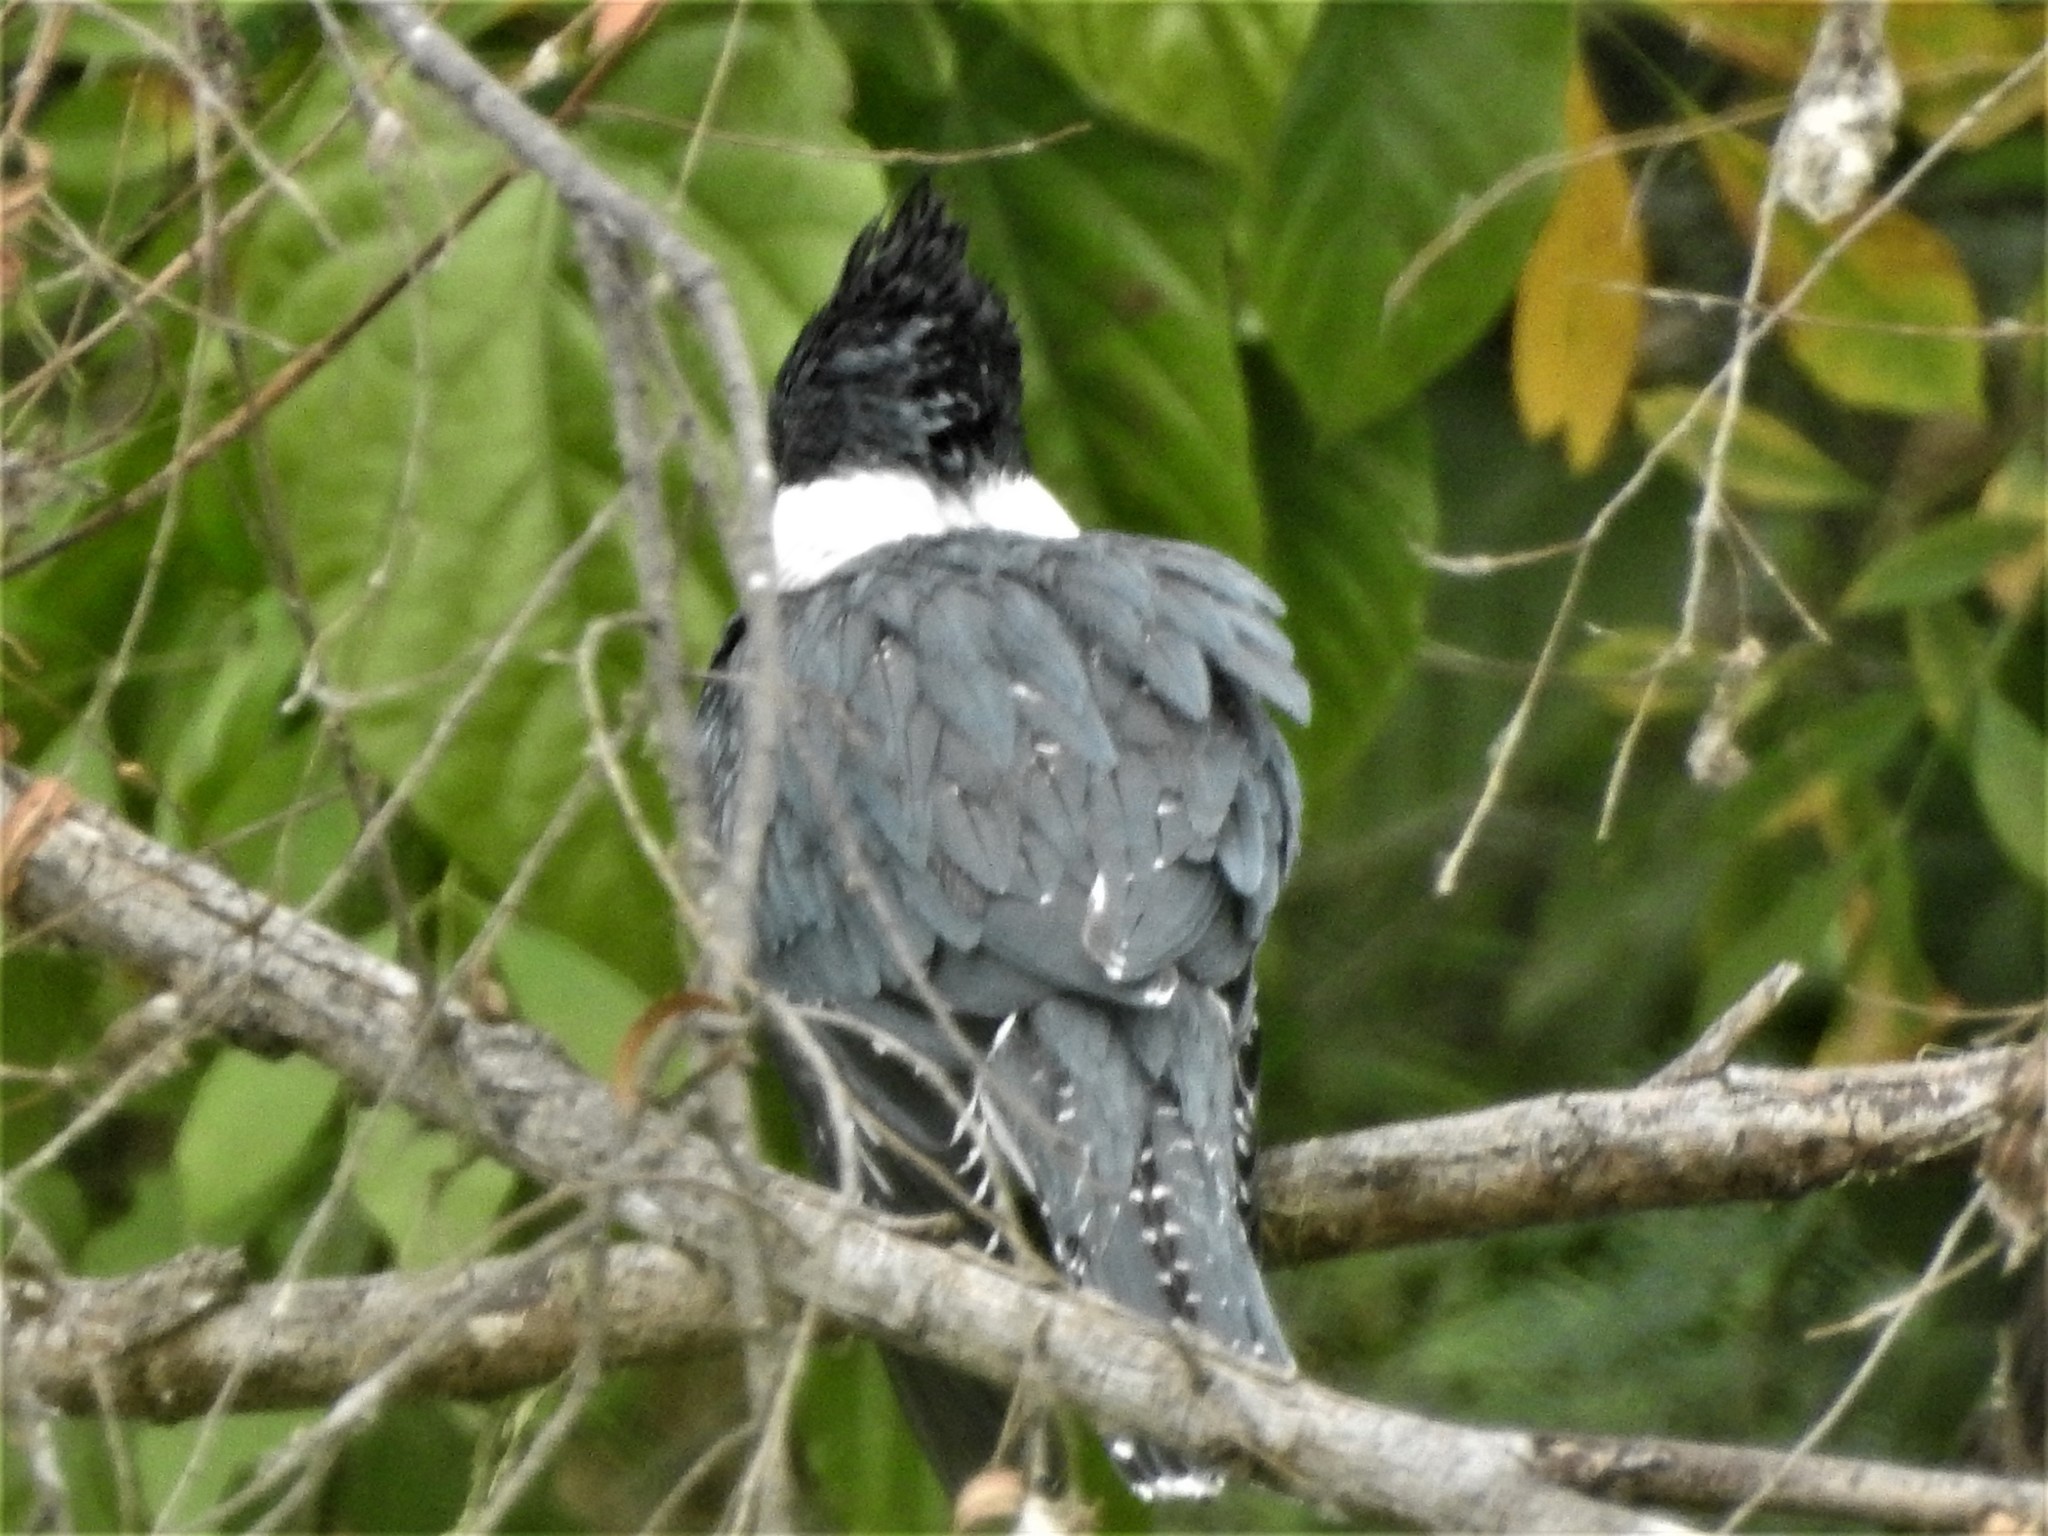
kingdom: Animalia
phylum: Chordata
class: Aves
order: Coraciiformes
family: Alcedinidae
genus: Megaceryle
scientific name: Megaceryle torquata
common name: Ringed kingfisher
